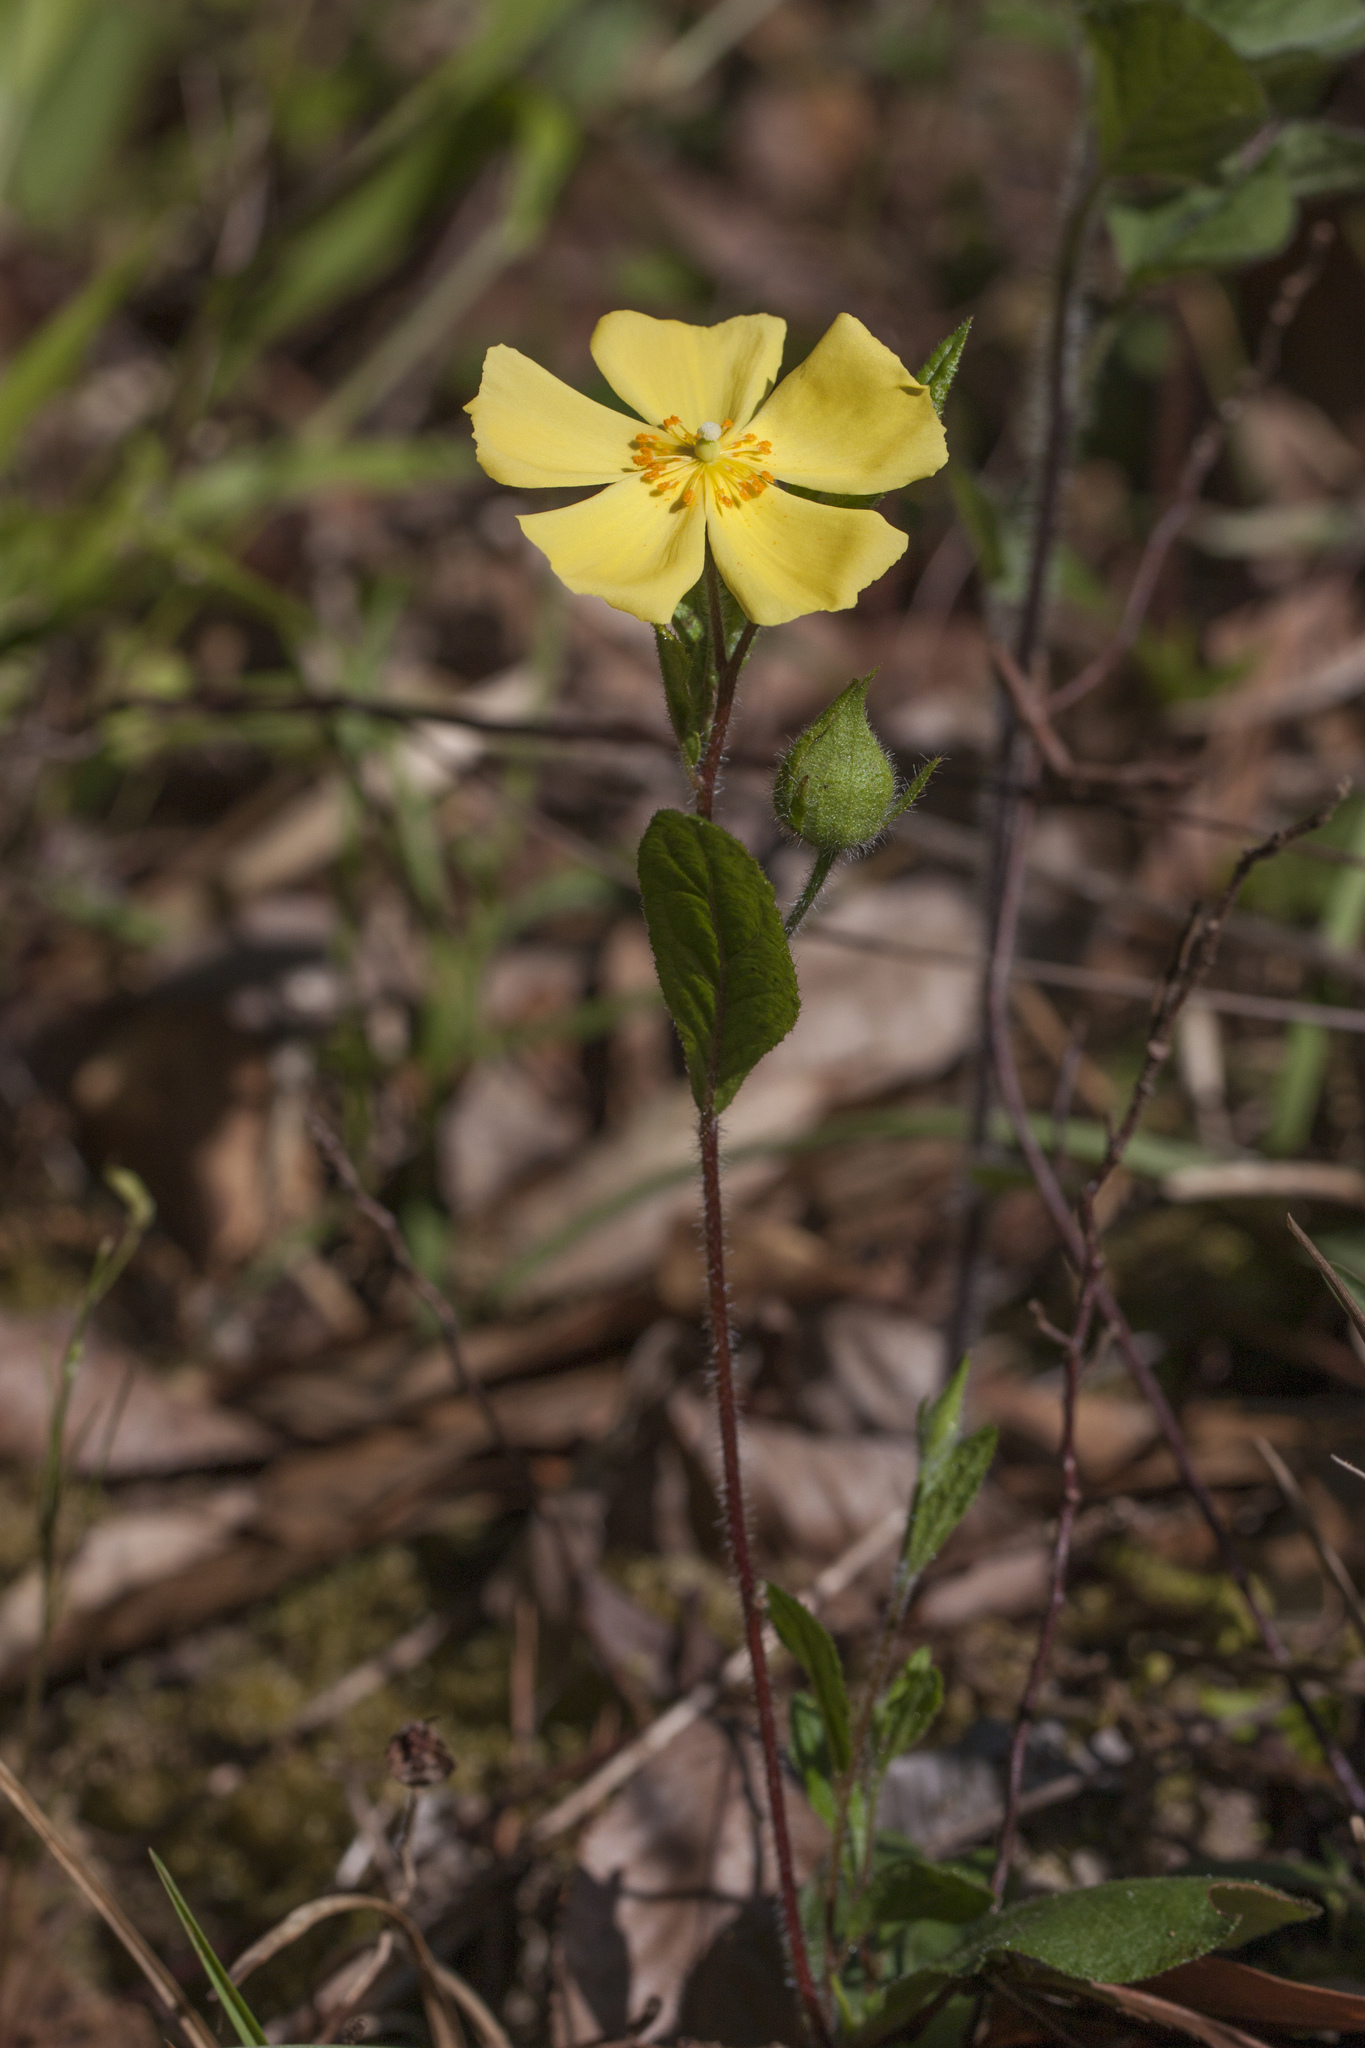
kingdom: Plantae
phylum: Tracheophyta
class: Magnoliopsida
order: Malvales
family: Cistaceae
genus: Crocanthemum
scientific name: Crocanthemum carolinianum
